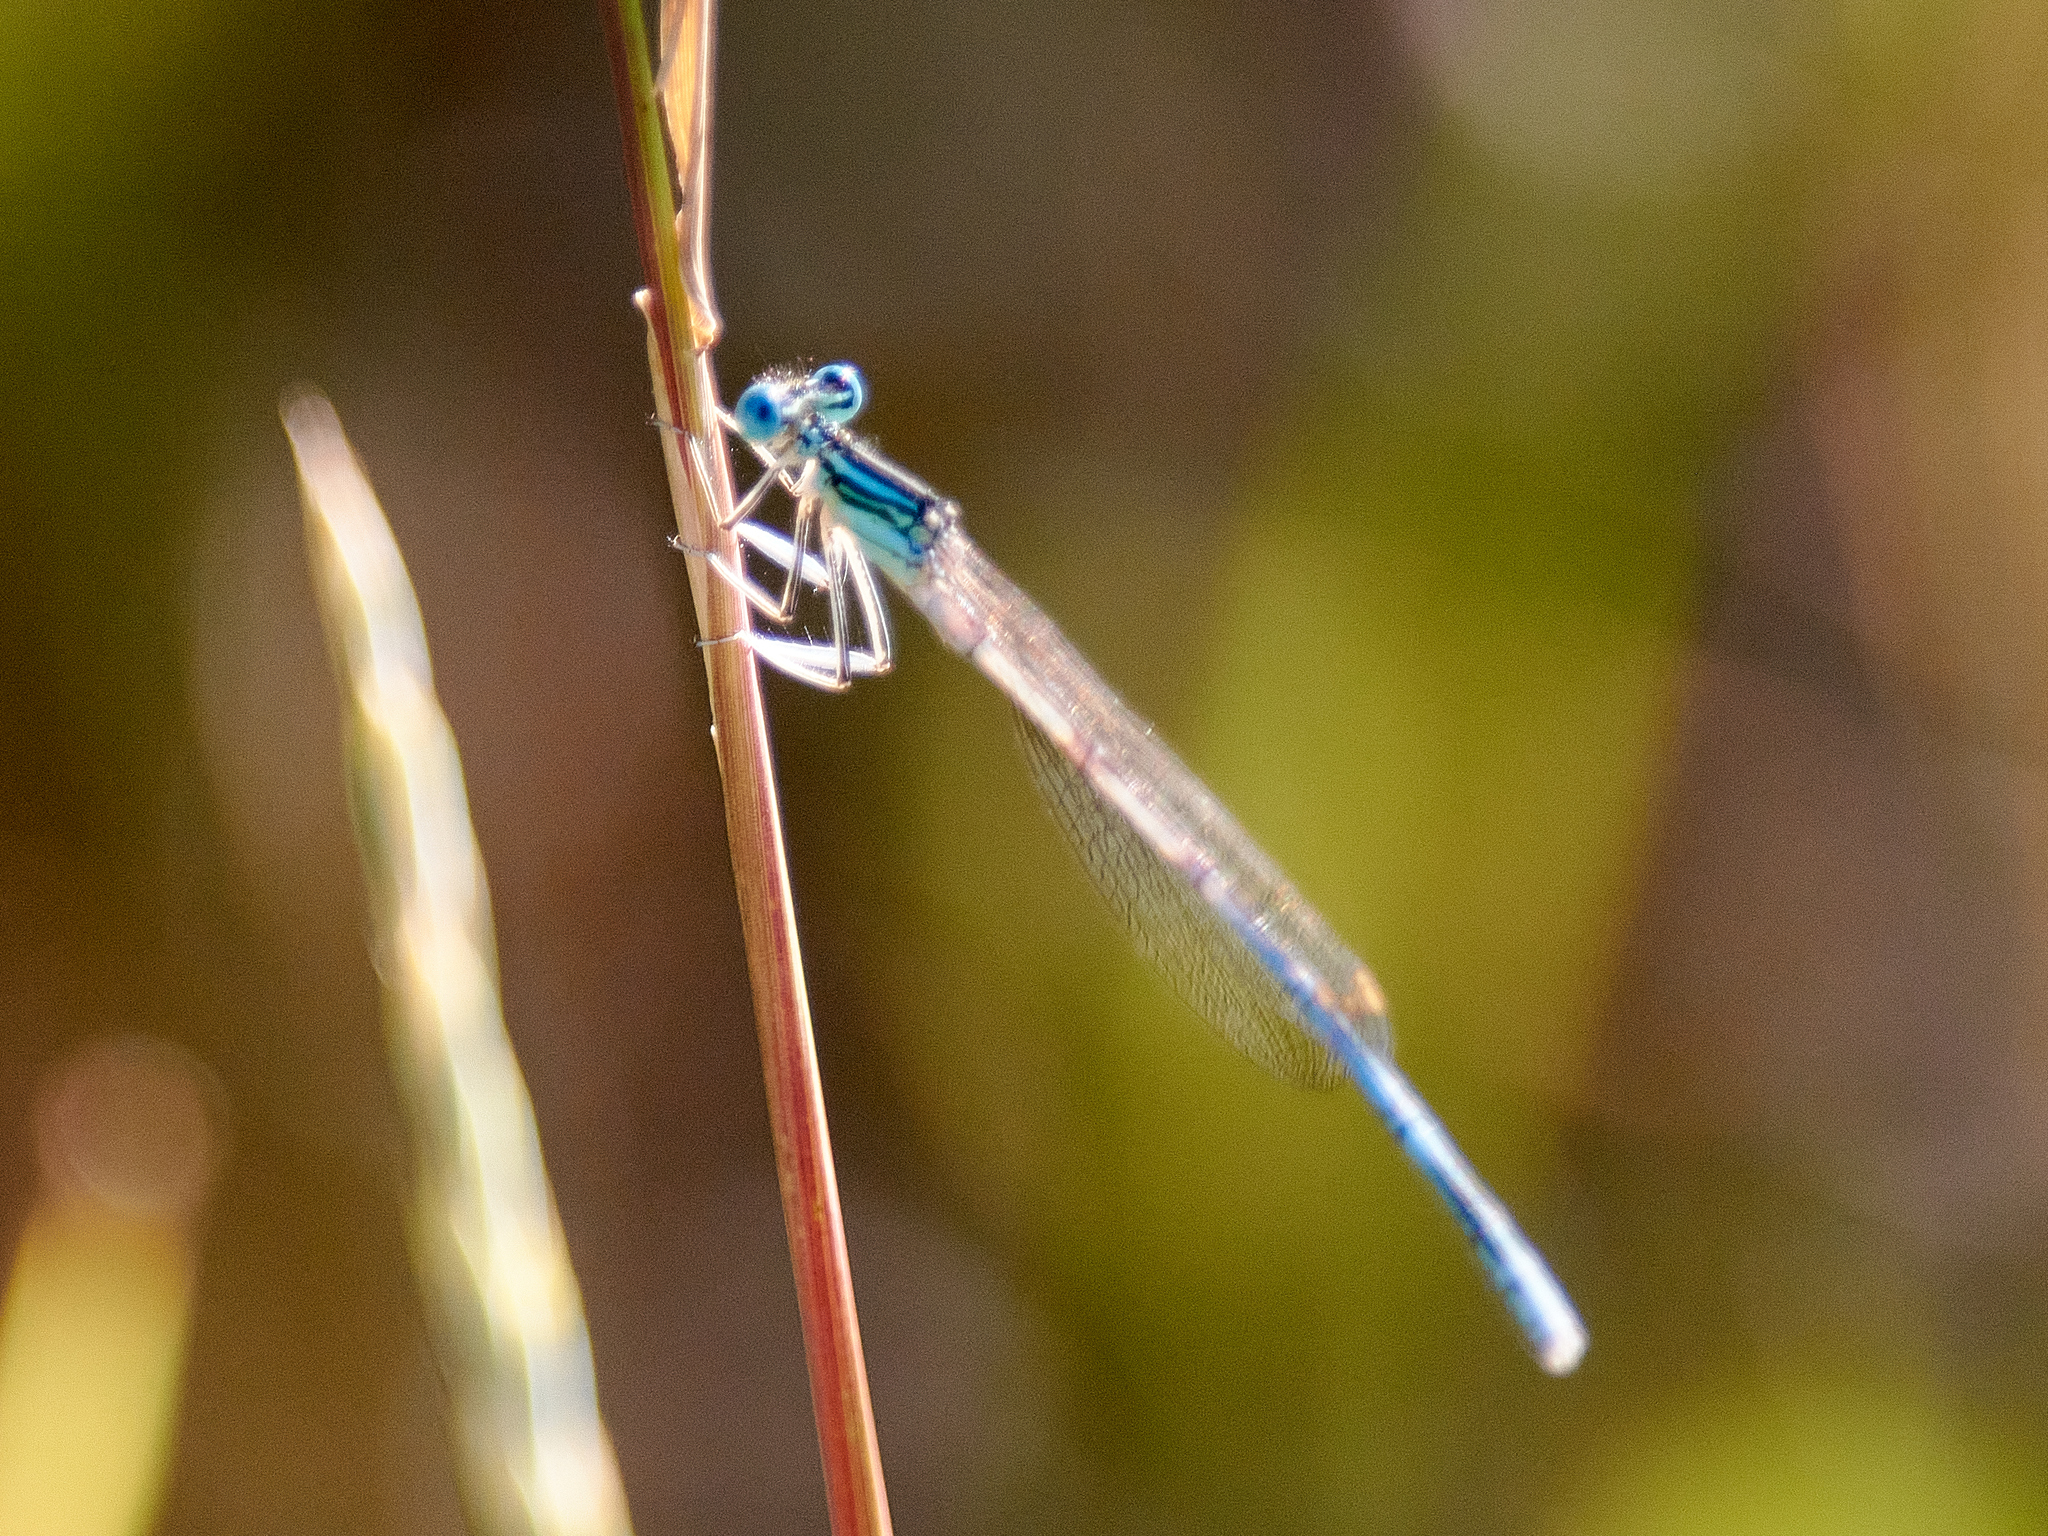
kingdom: Animalia
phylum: Arthropoda
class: Insecta
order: Odonata
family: Platycnemididae
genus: Platycnemis
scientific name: Platycnemis pennipes
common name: White-legged damselfly
